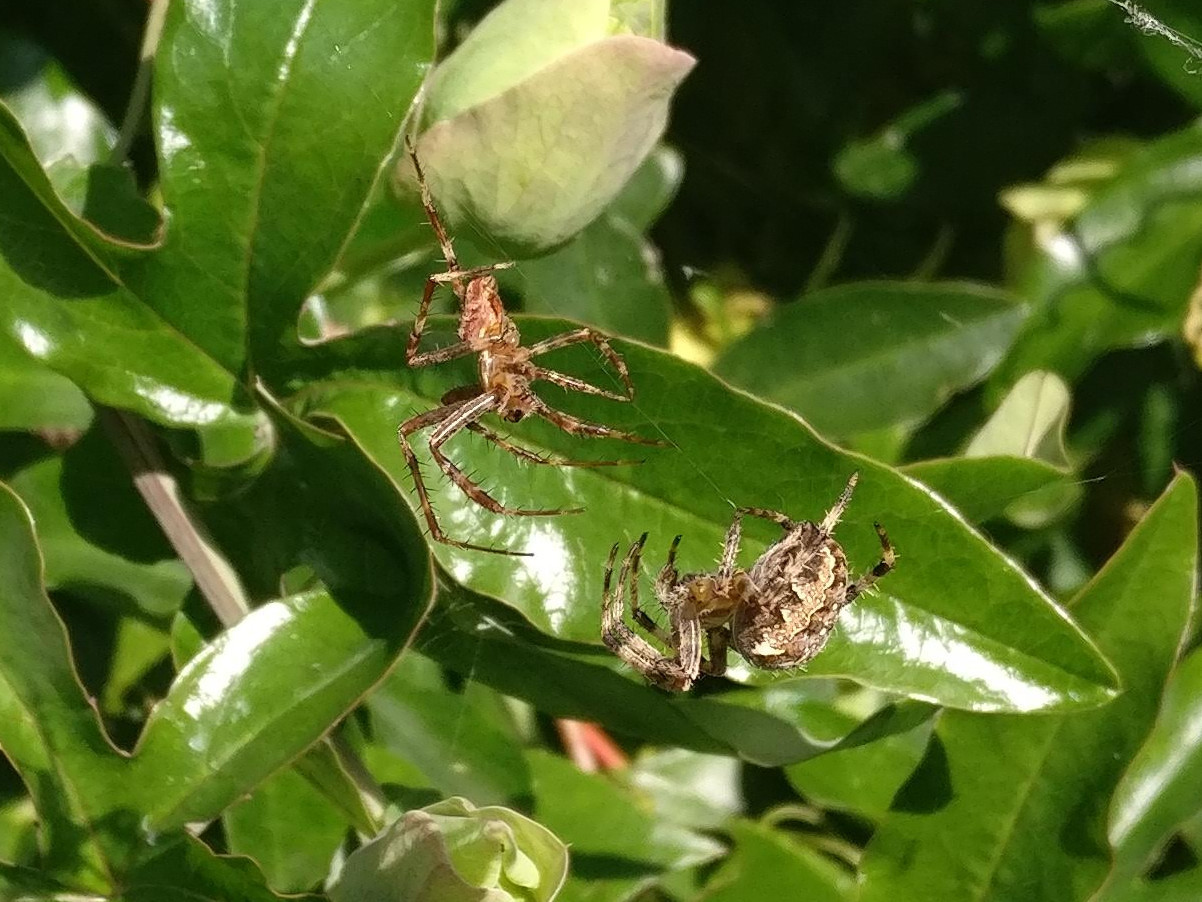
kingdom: Animalia
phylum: Arthropoda
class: Arachnida
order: Araneae
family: Araneidae
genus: Araneus
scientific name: Araneus diadematus
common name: Cross orbweaver
